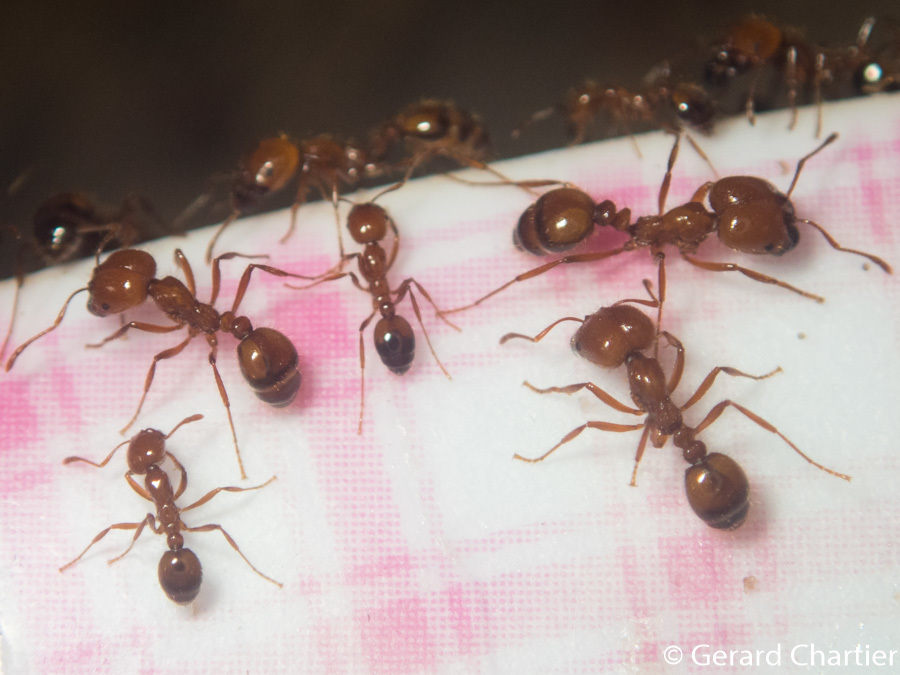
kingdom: Animalia
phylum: Arthropoda
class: Insecta
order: Hymenoptera
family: Formicidae
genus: Solenopsis
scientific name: Solenopsis geminata
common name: Tropical fire ant
